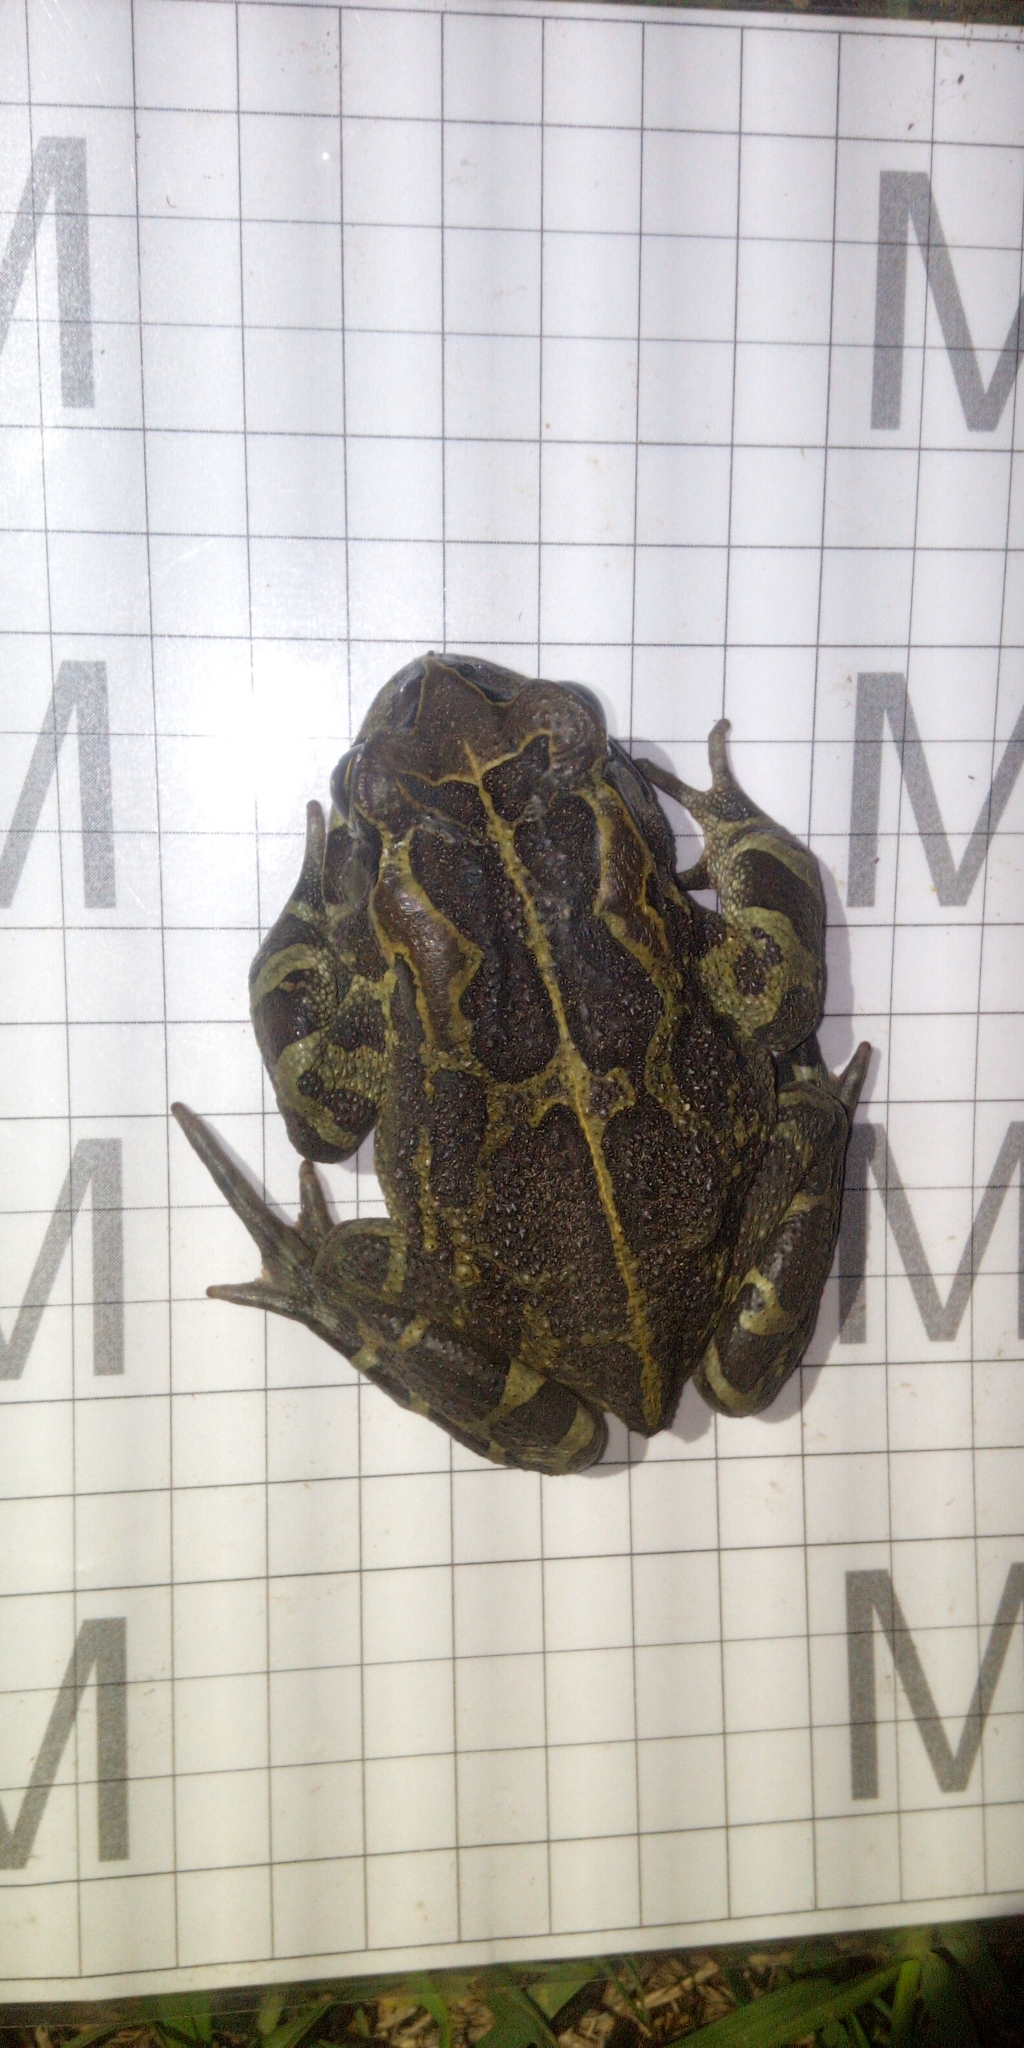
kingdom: Animalia
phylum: Chordata
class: Amphibia
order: Anura
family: Bufonidae
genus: Sclerophrys
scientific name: Sclerophrys pantherina
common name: Panther toad
